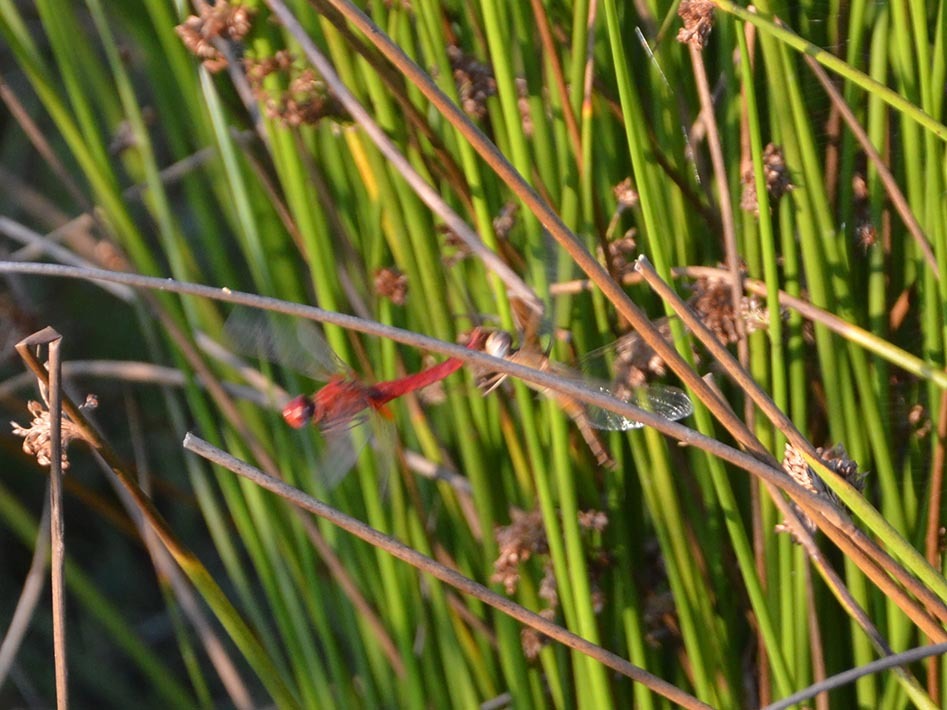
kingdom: Animalia
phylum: Arthropoda
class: Insecta
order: Odonata
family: Libellulidae
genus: Crocothemis
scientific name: Crocothemis erythraea
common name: Scarlet dragonfly
